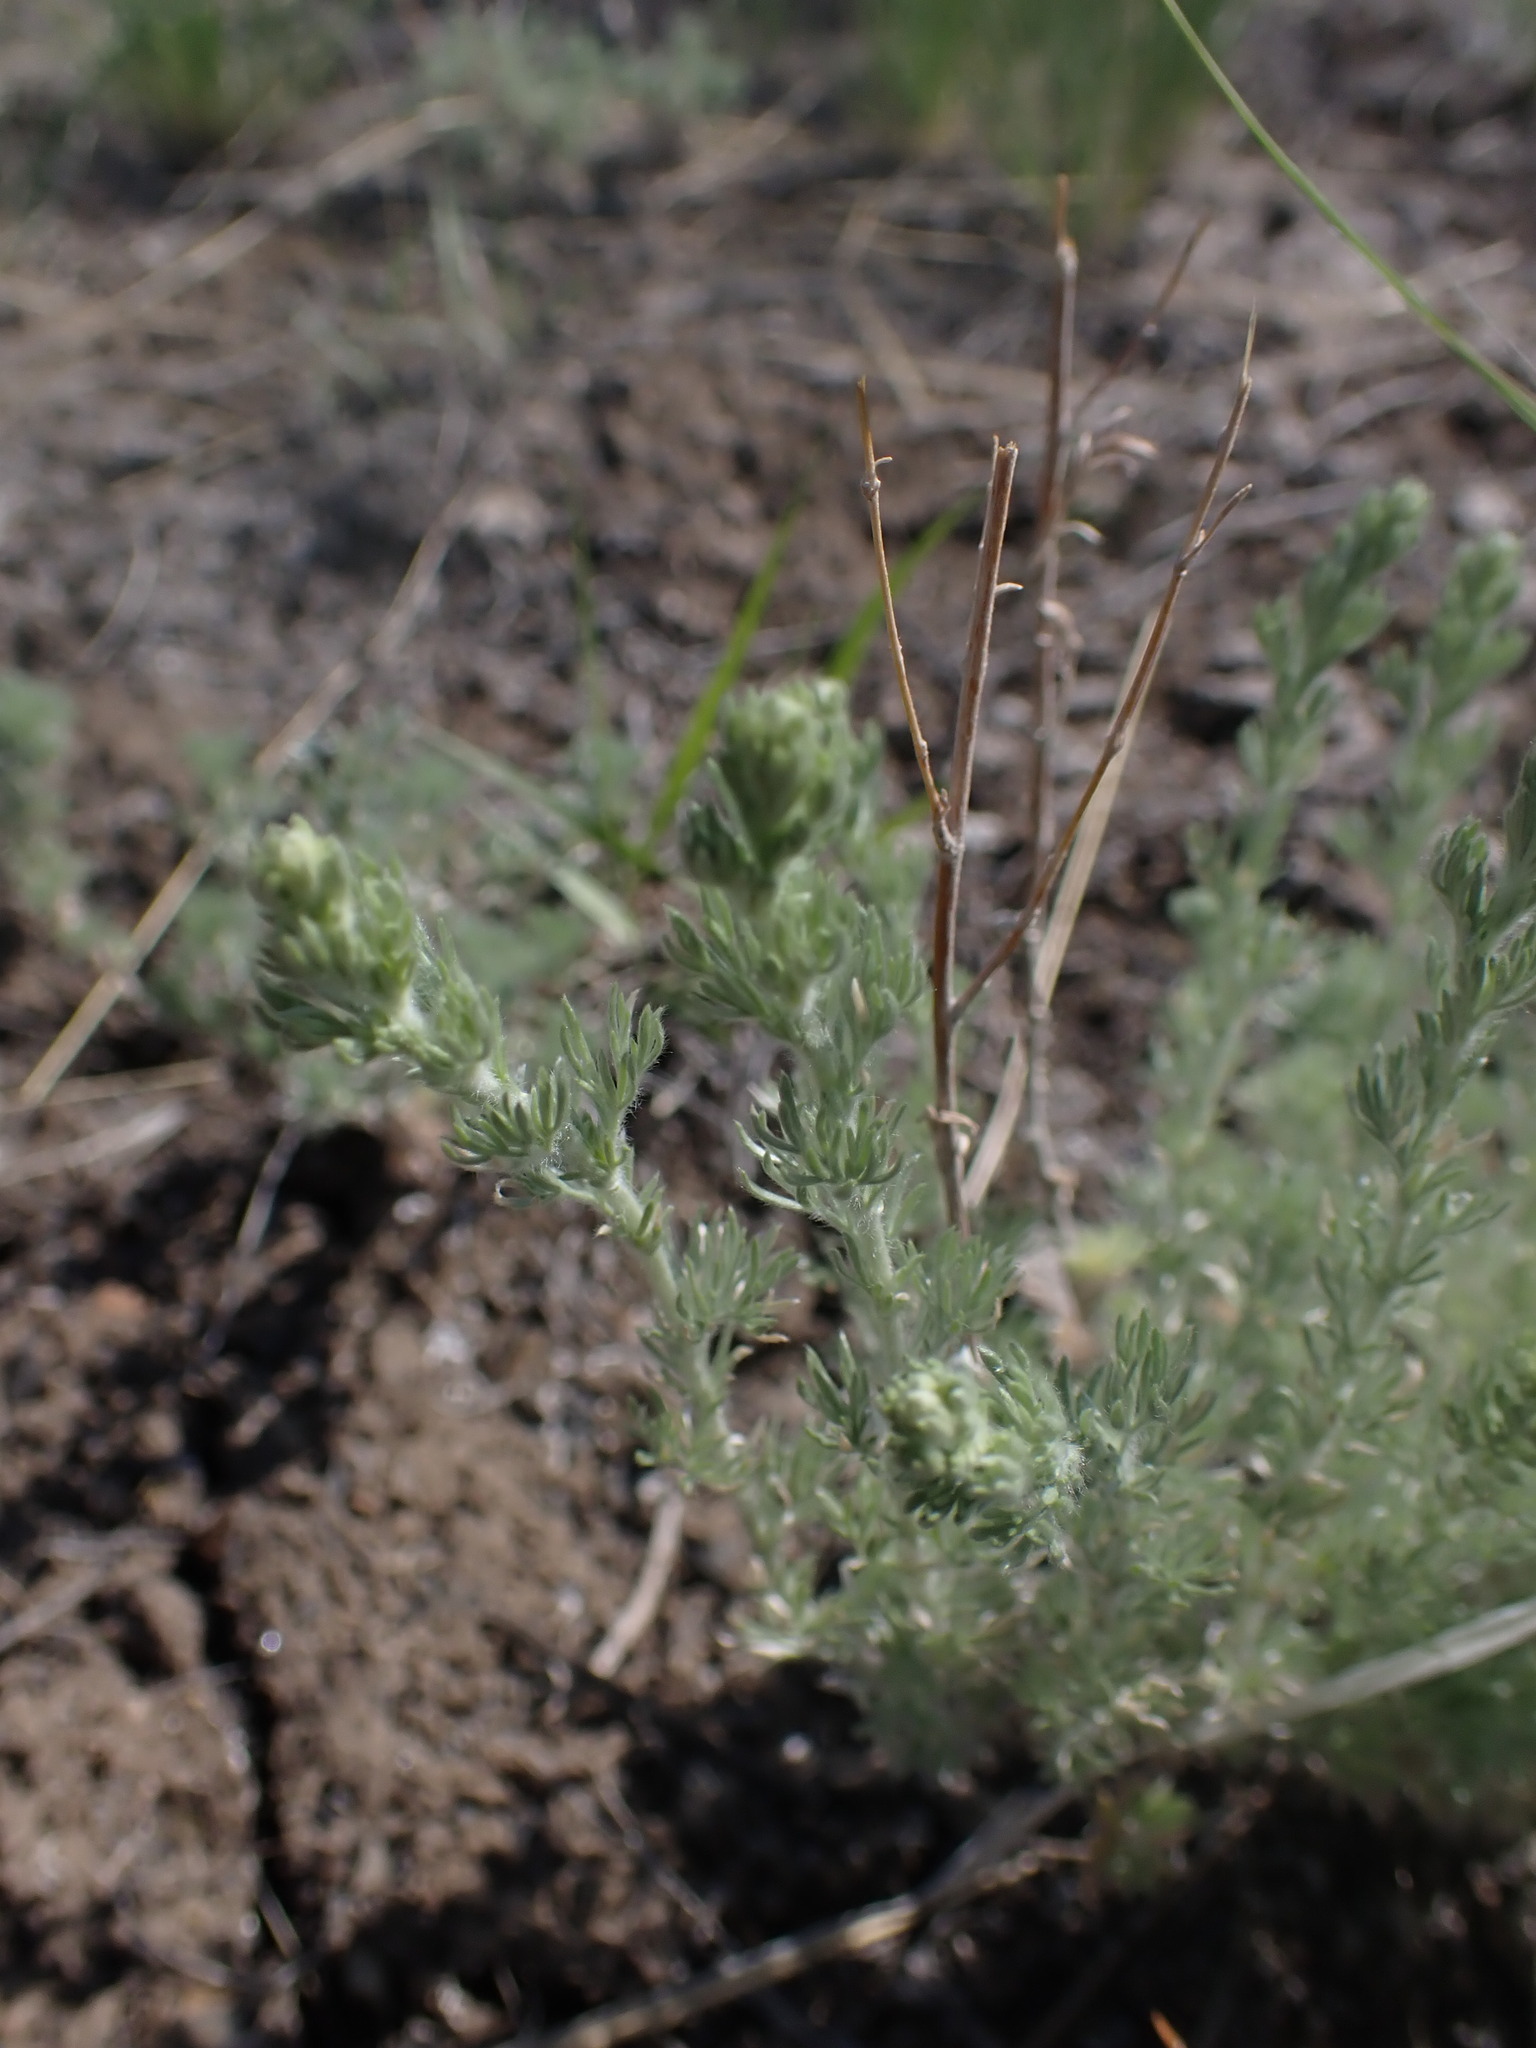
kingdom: Plantae
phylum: Tracheophyta
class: Magnoliopsida
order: Asterales
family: Asteraceae
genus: Artemisia
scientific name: Artemisia frigida
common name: Prairie sagewort
